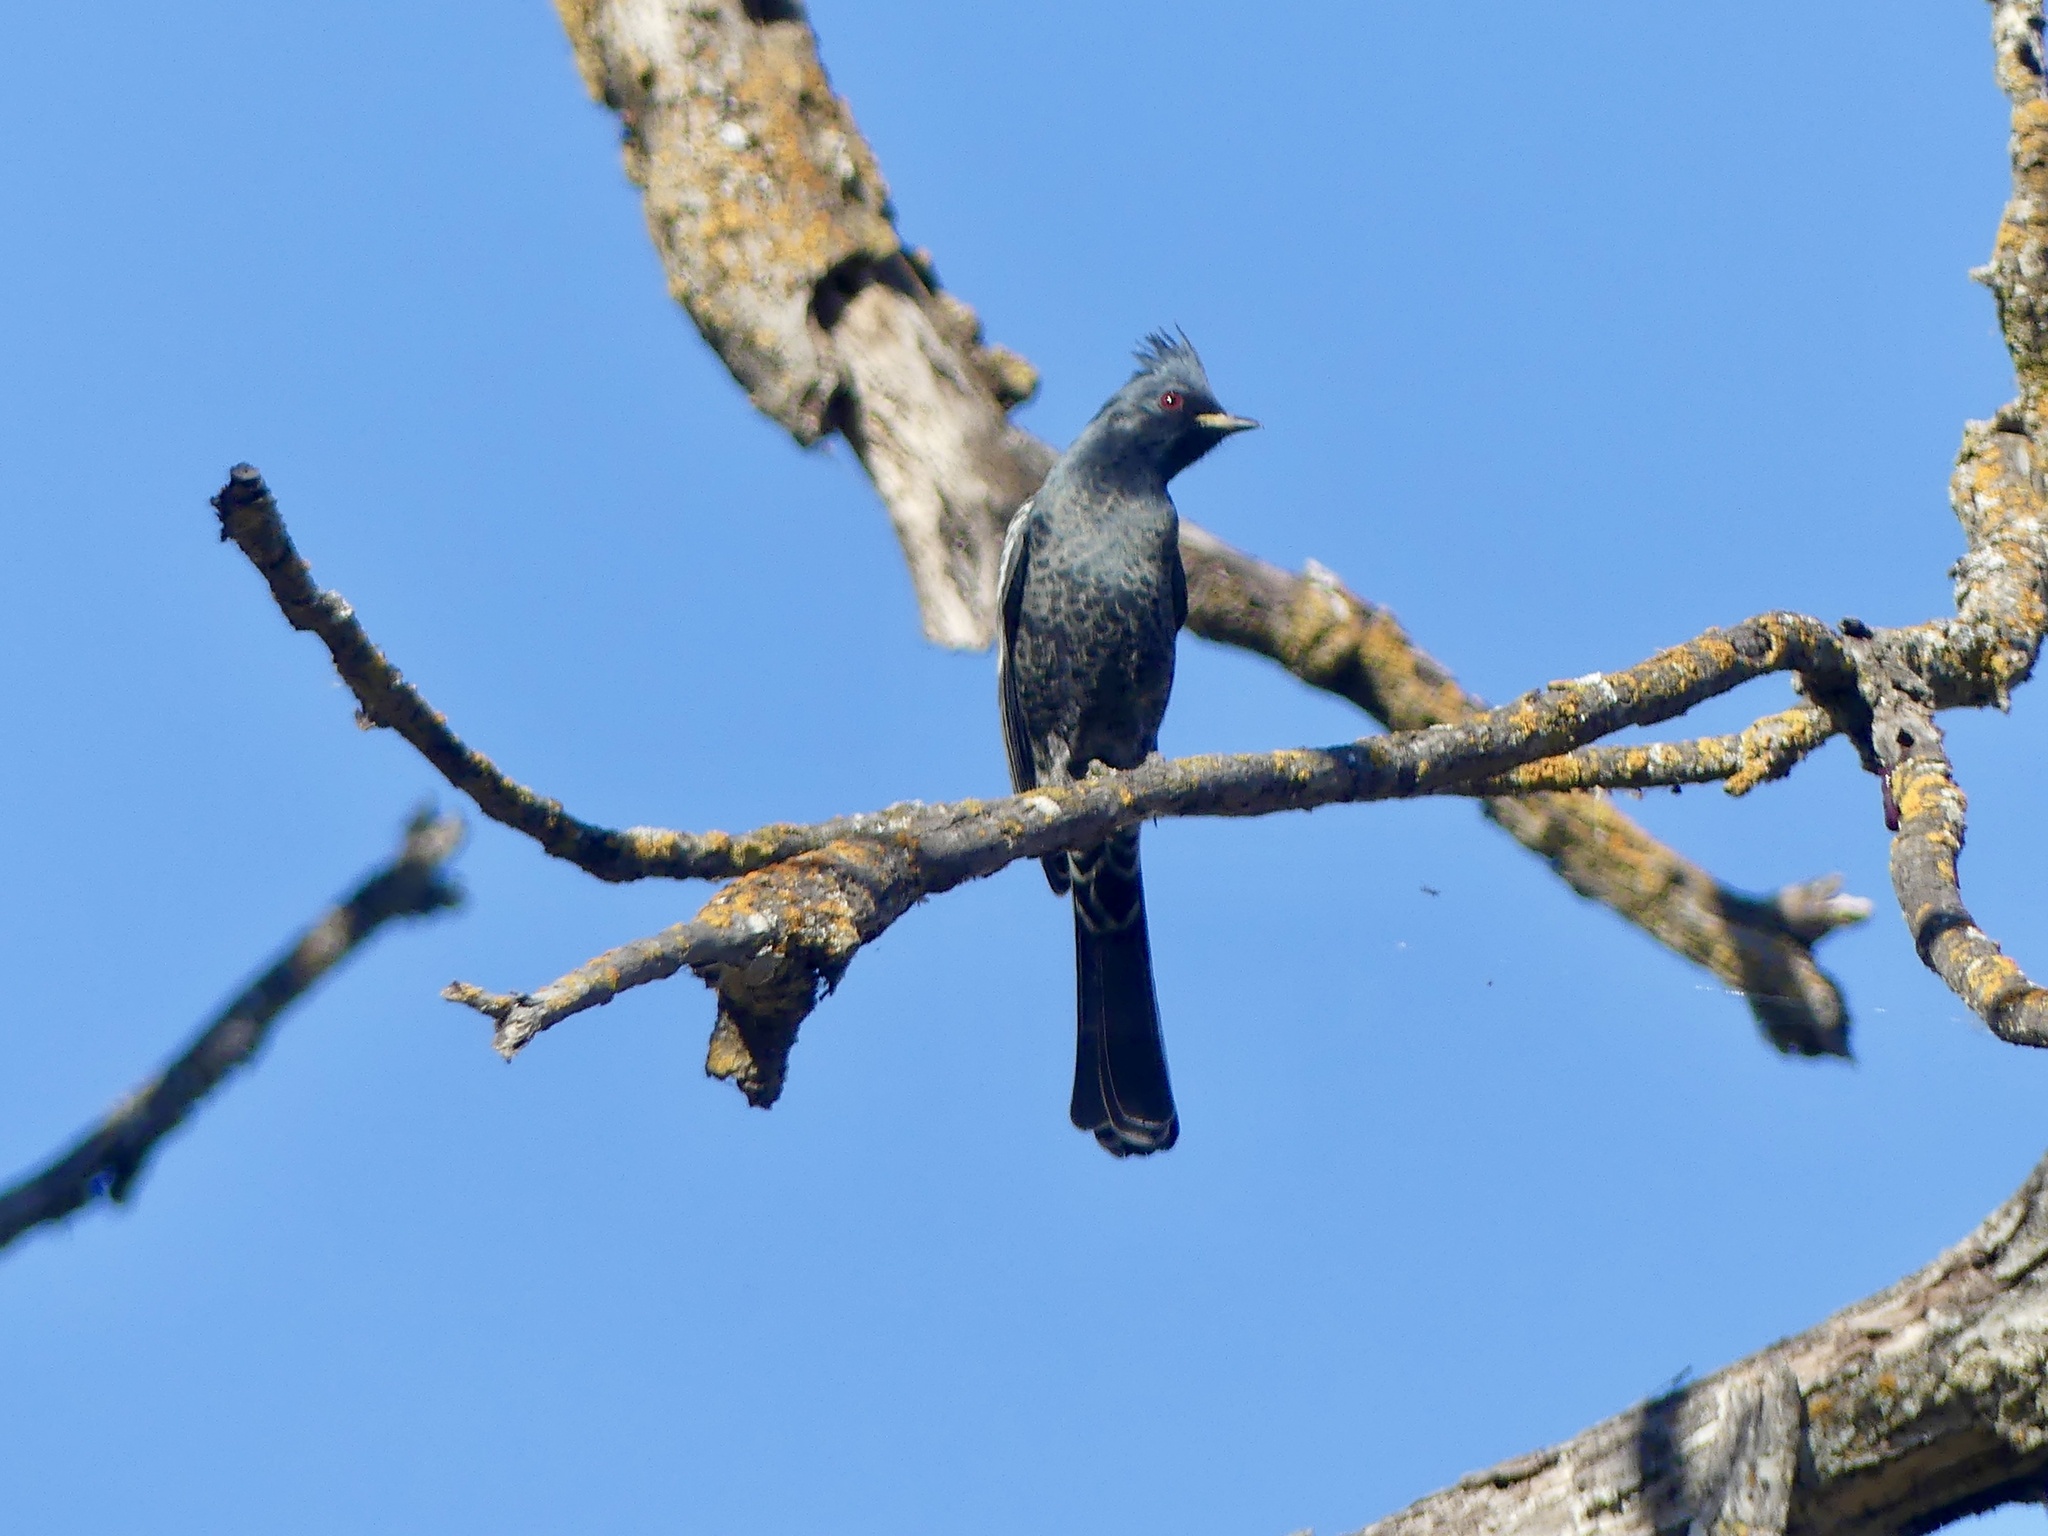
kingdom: Animalia
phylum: Chordata
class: Aves
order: Passeriformes
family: Ptilogonatidae
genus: Phainopepla
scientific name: Phainopepla nitens
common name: Phainopepla
